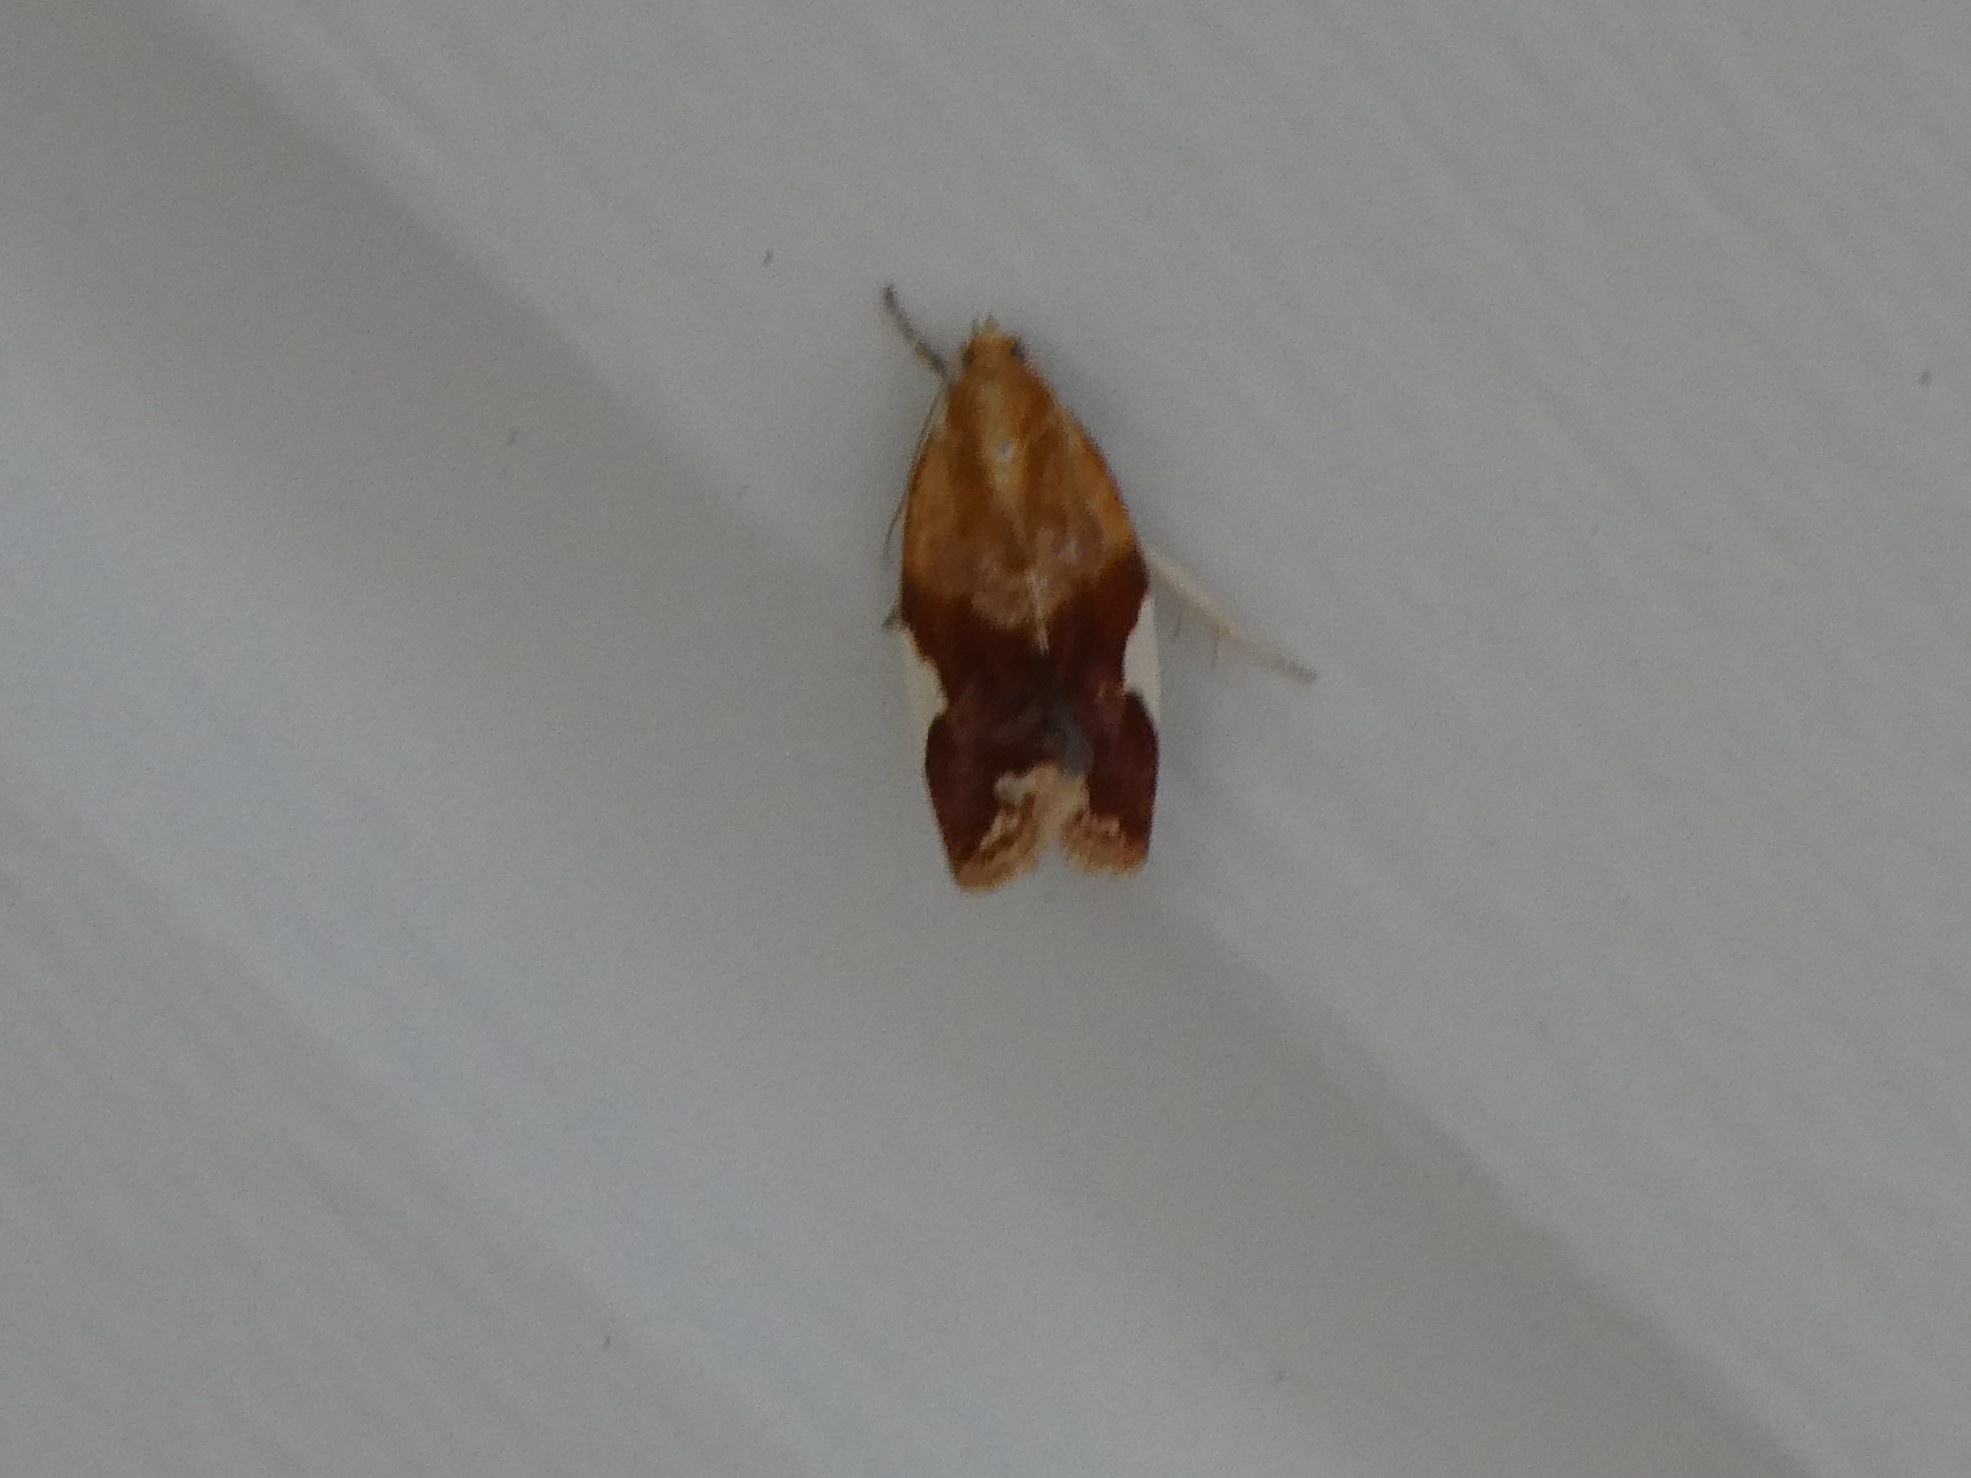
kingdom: Animalia
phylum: Arthropoda
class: Insecta
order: Lepidoptera
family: Tortricidae
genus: Clepsis
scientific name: Clepsis persicana
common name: White triangle tortrix
